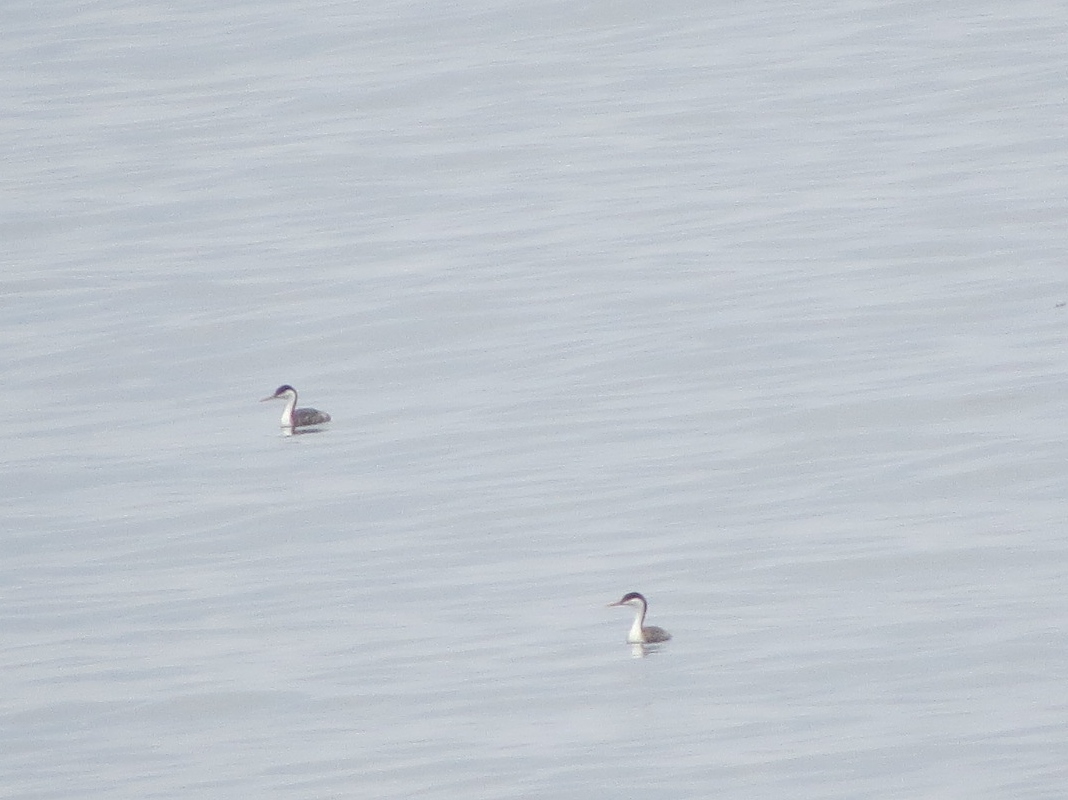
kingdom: Animalia
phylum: Chordata
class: Aves
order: Podicipediformes
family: Podicipedidae
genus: Aechmophorus
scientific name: Aechmophorus occidentalis
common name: Western grebe
